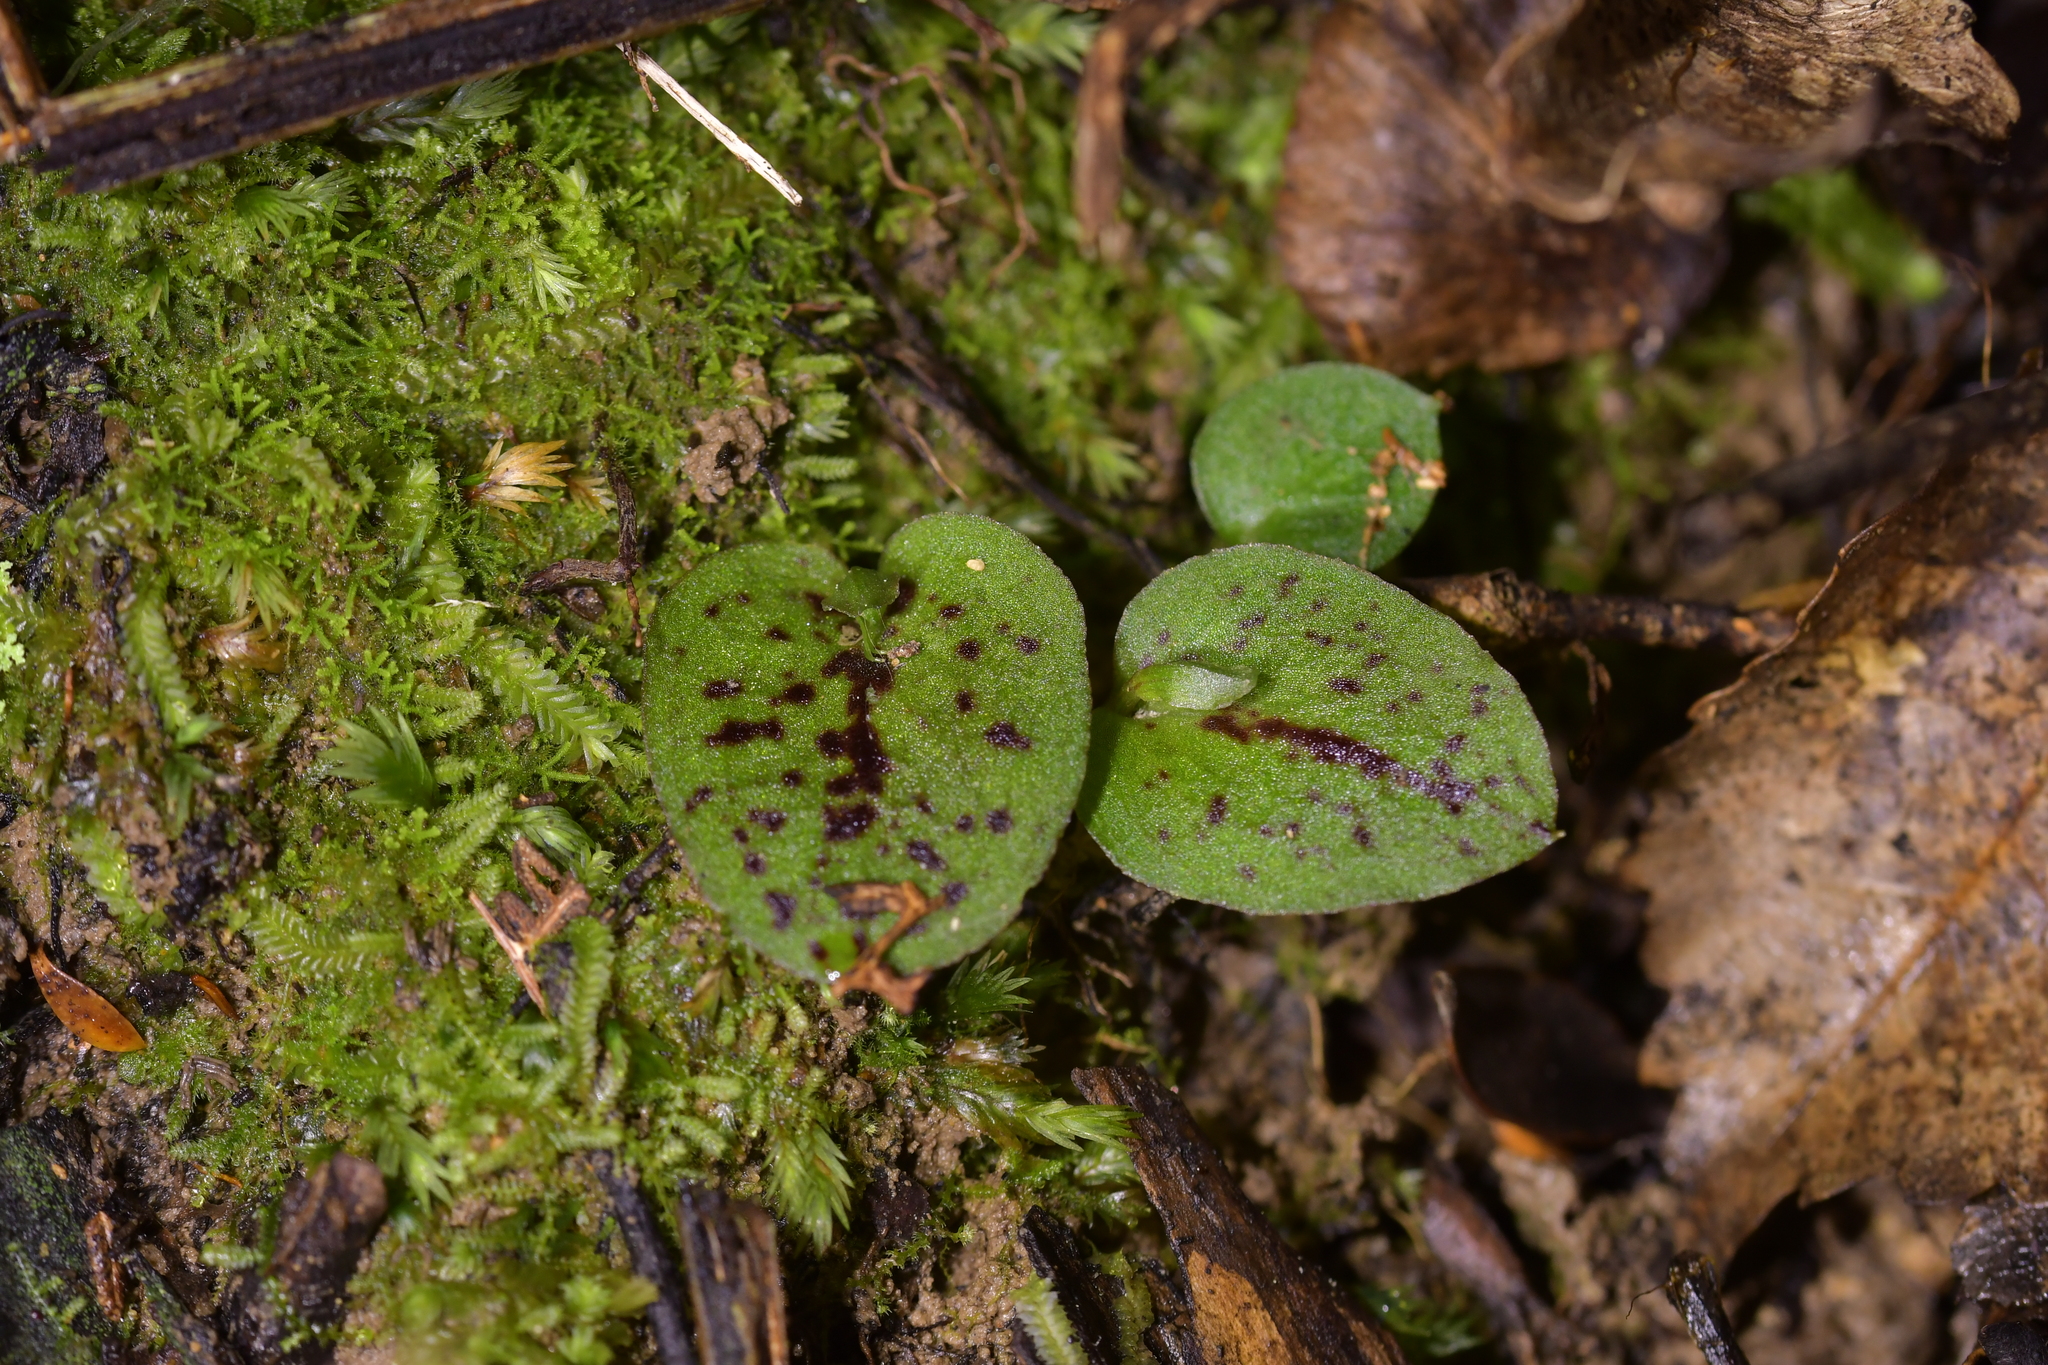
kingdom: Plantae
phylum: Tracheophyta
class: Liliopsida
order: Asparagales
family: Orchidaceae
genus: Corybas
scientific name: Corybas oblongus
